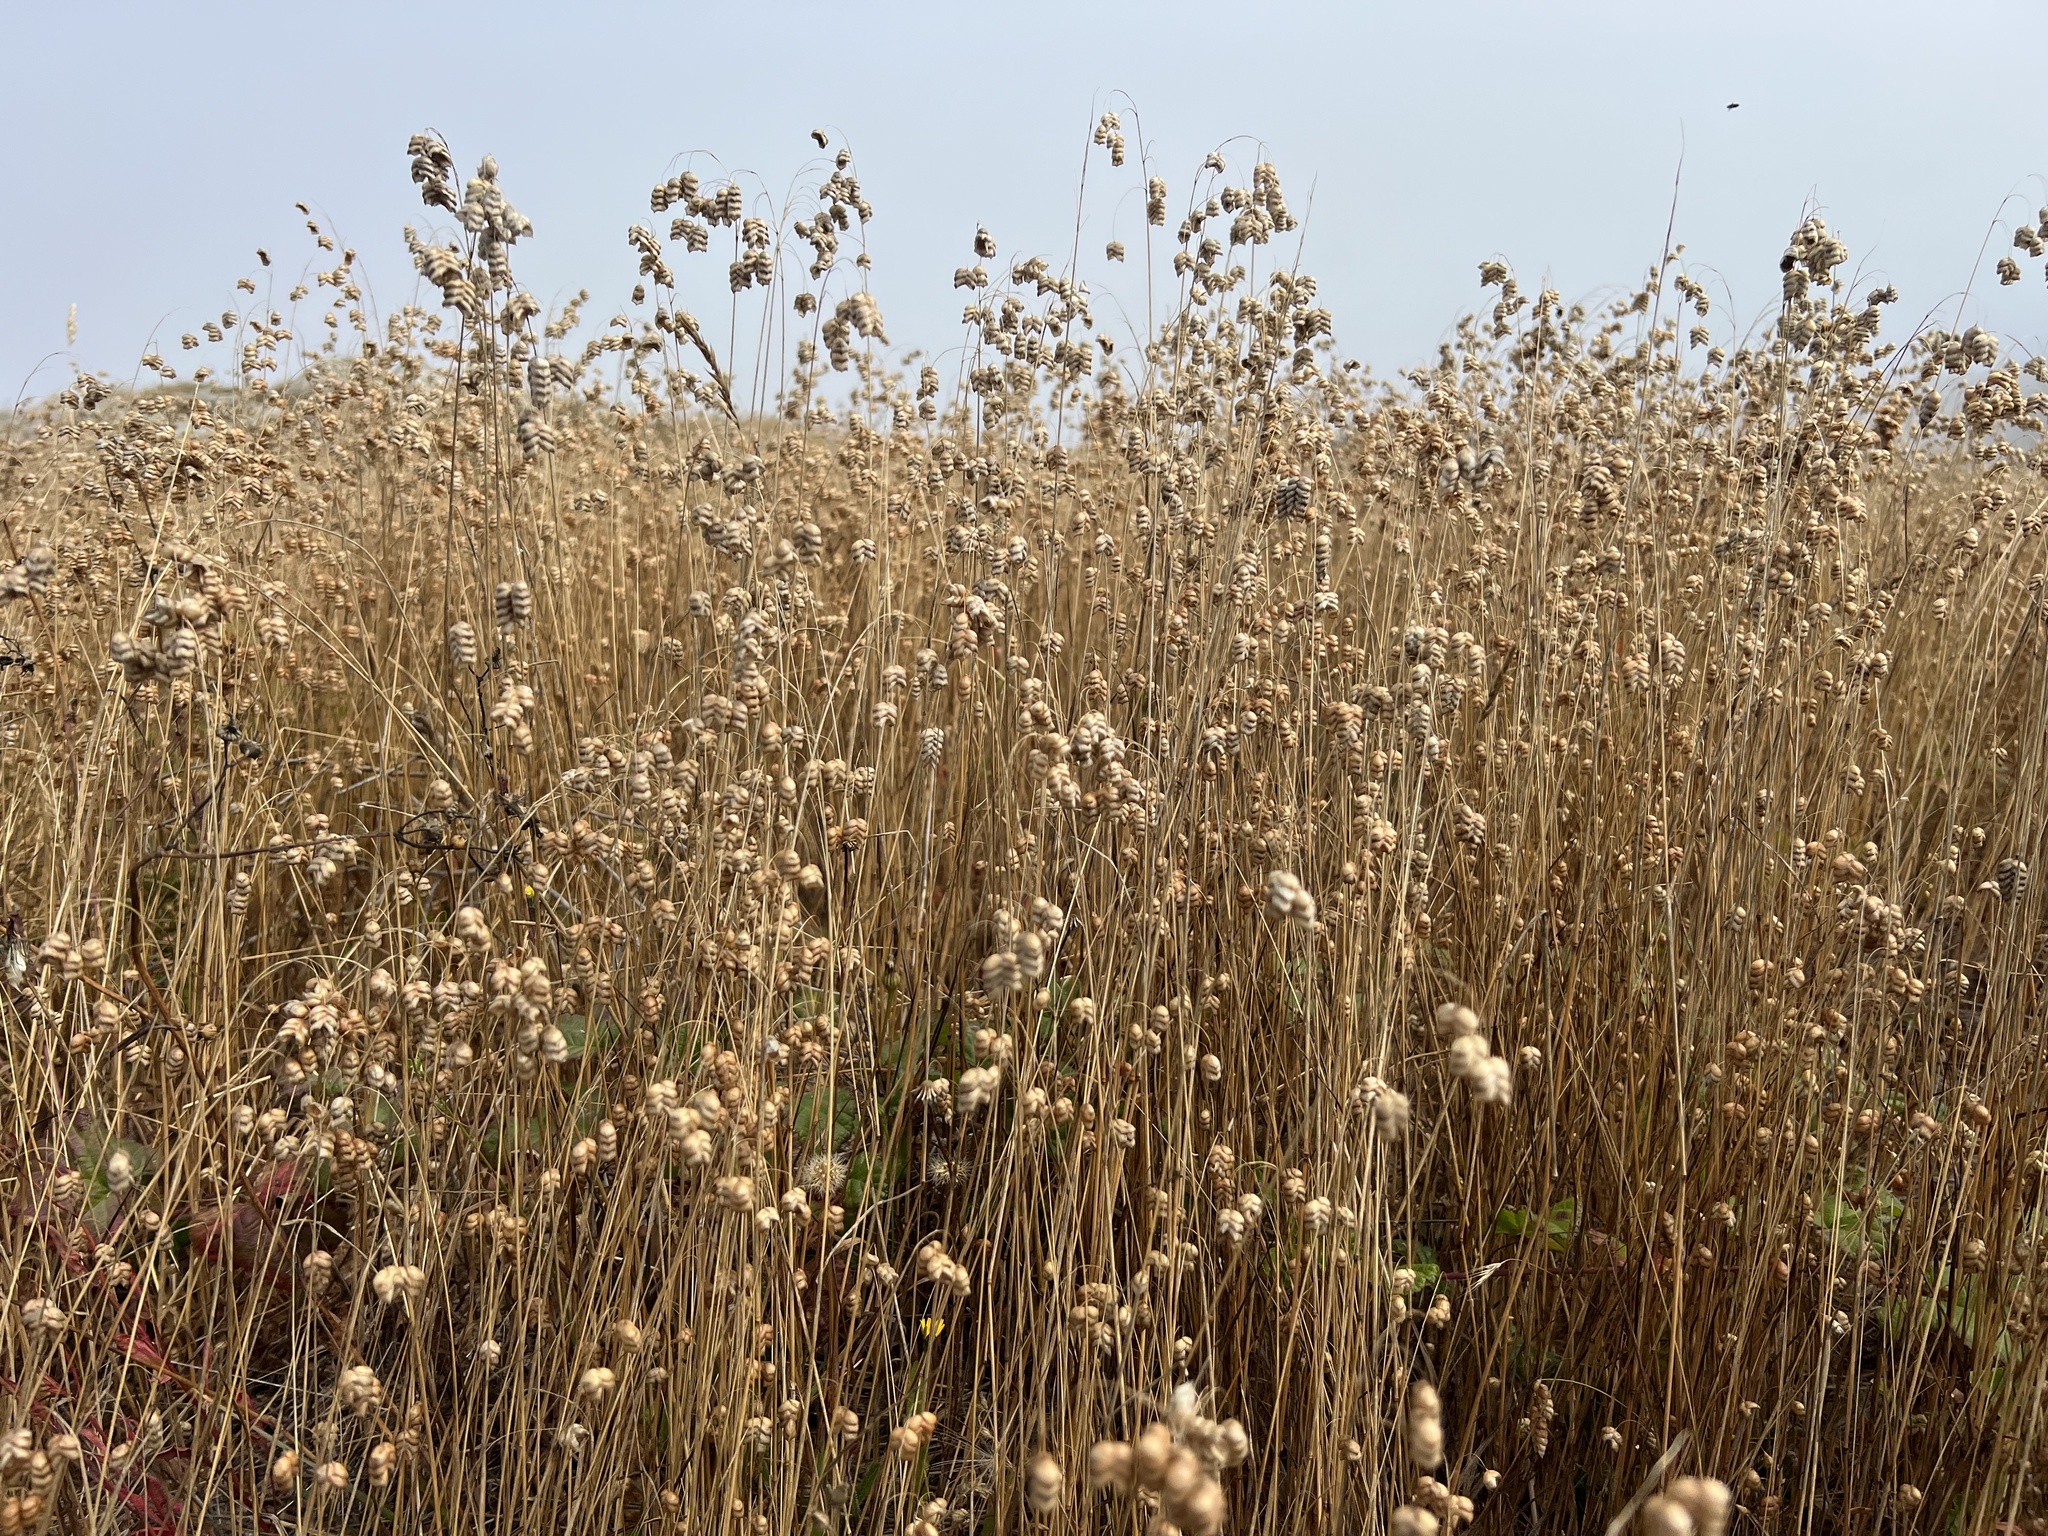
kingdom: Plantae
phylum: Tracheophyta
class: Liliopsida
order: Poales
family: Poaceae
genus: Briza
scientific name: Briza maxima
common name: Big quakinggrass
